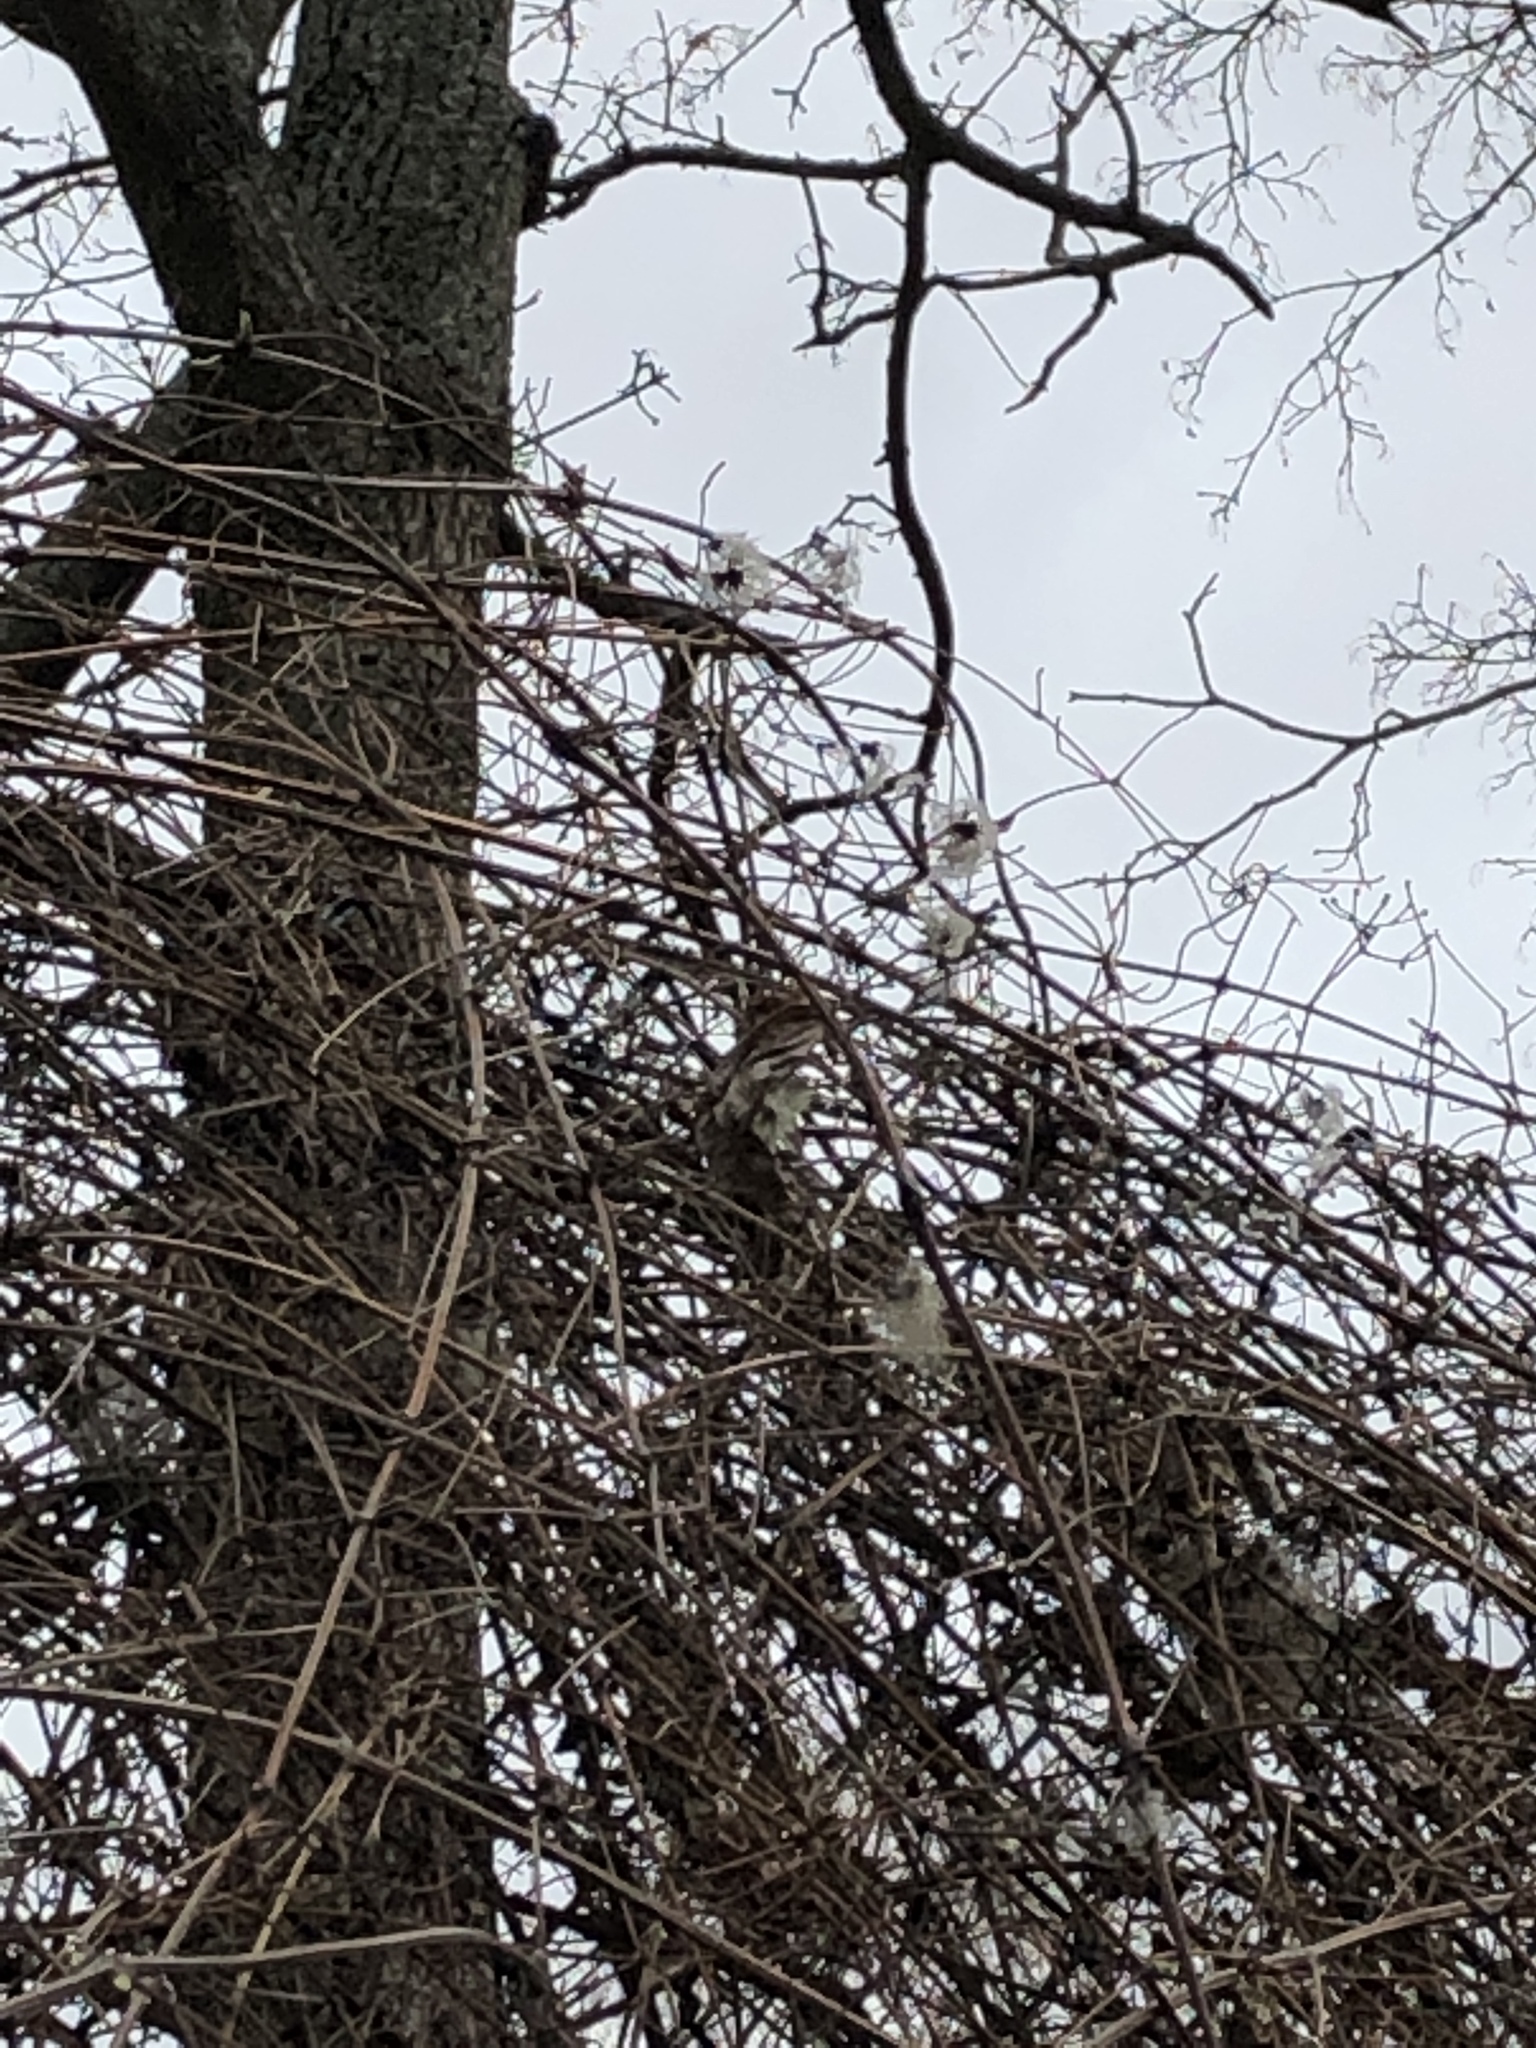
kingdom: Plantae
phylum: Tracheophyta
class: Magnoliopsida
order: Ranunculales
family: Ranunculaceae
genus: Clematis
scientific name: Clematis vitalba
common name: Evergreen clematis
